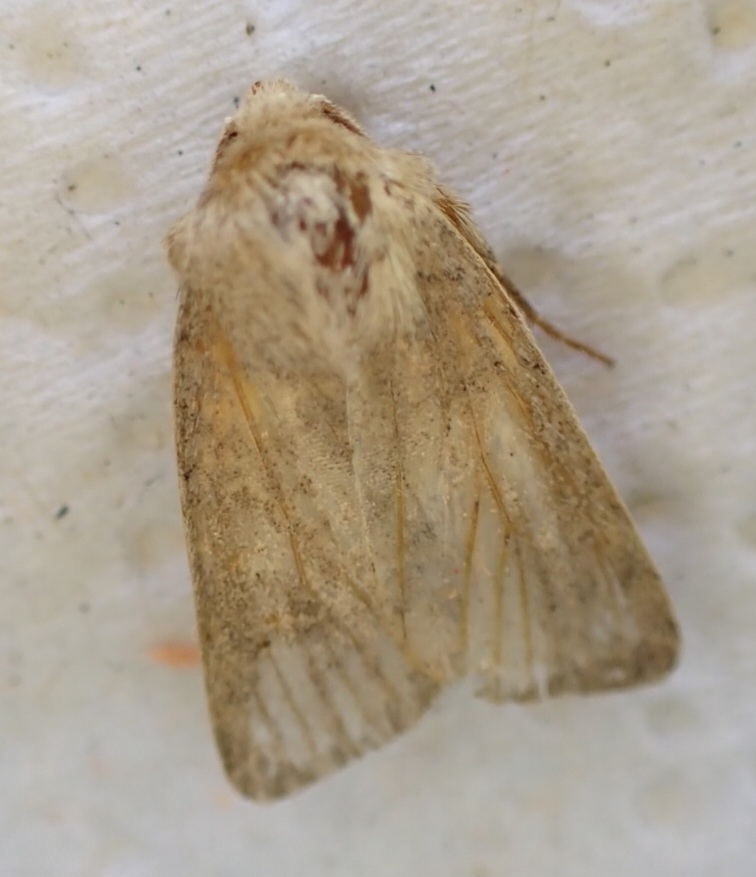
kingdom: Animalia
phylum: Arthropoda
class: Insecta
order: Lepidoptera
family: Noctuidae
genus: Photedes
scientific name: Photedes fluxa
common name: Mere wainscot
